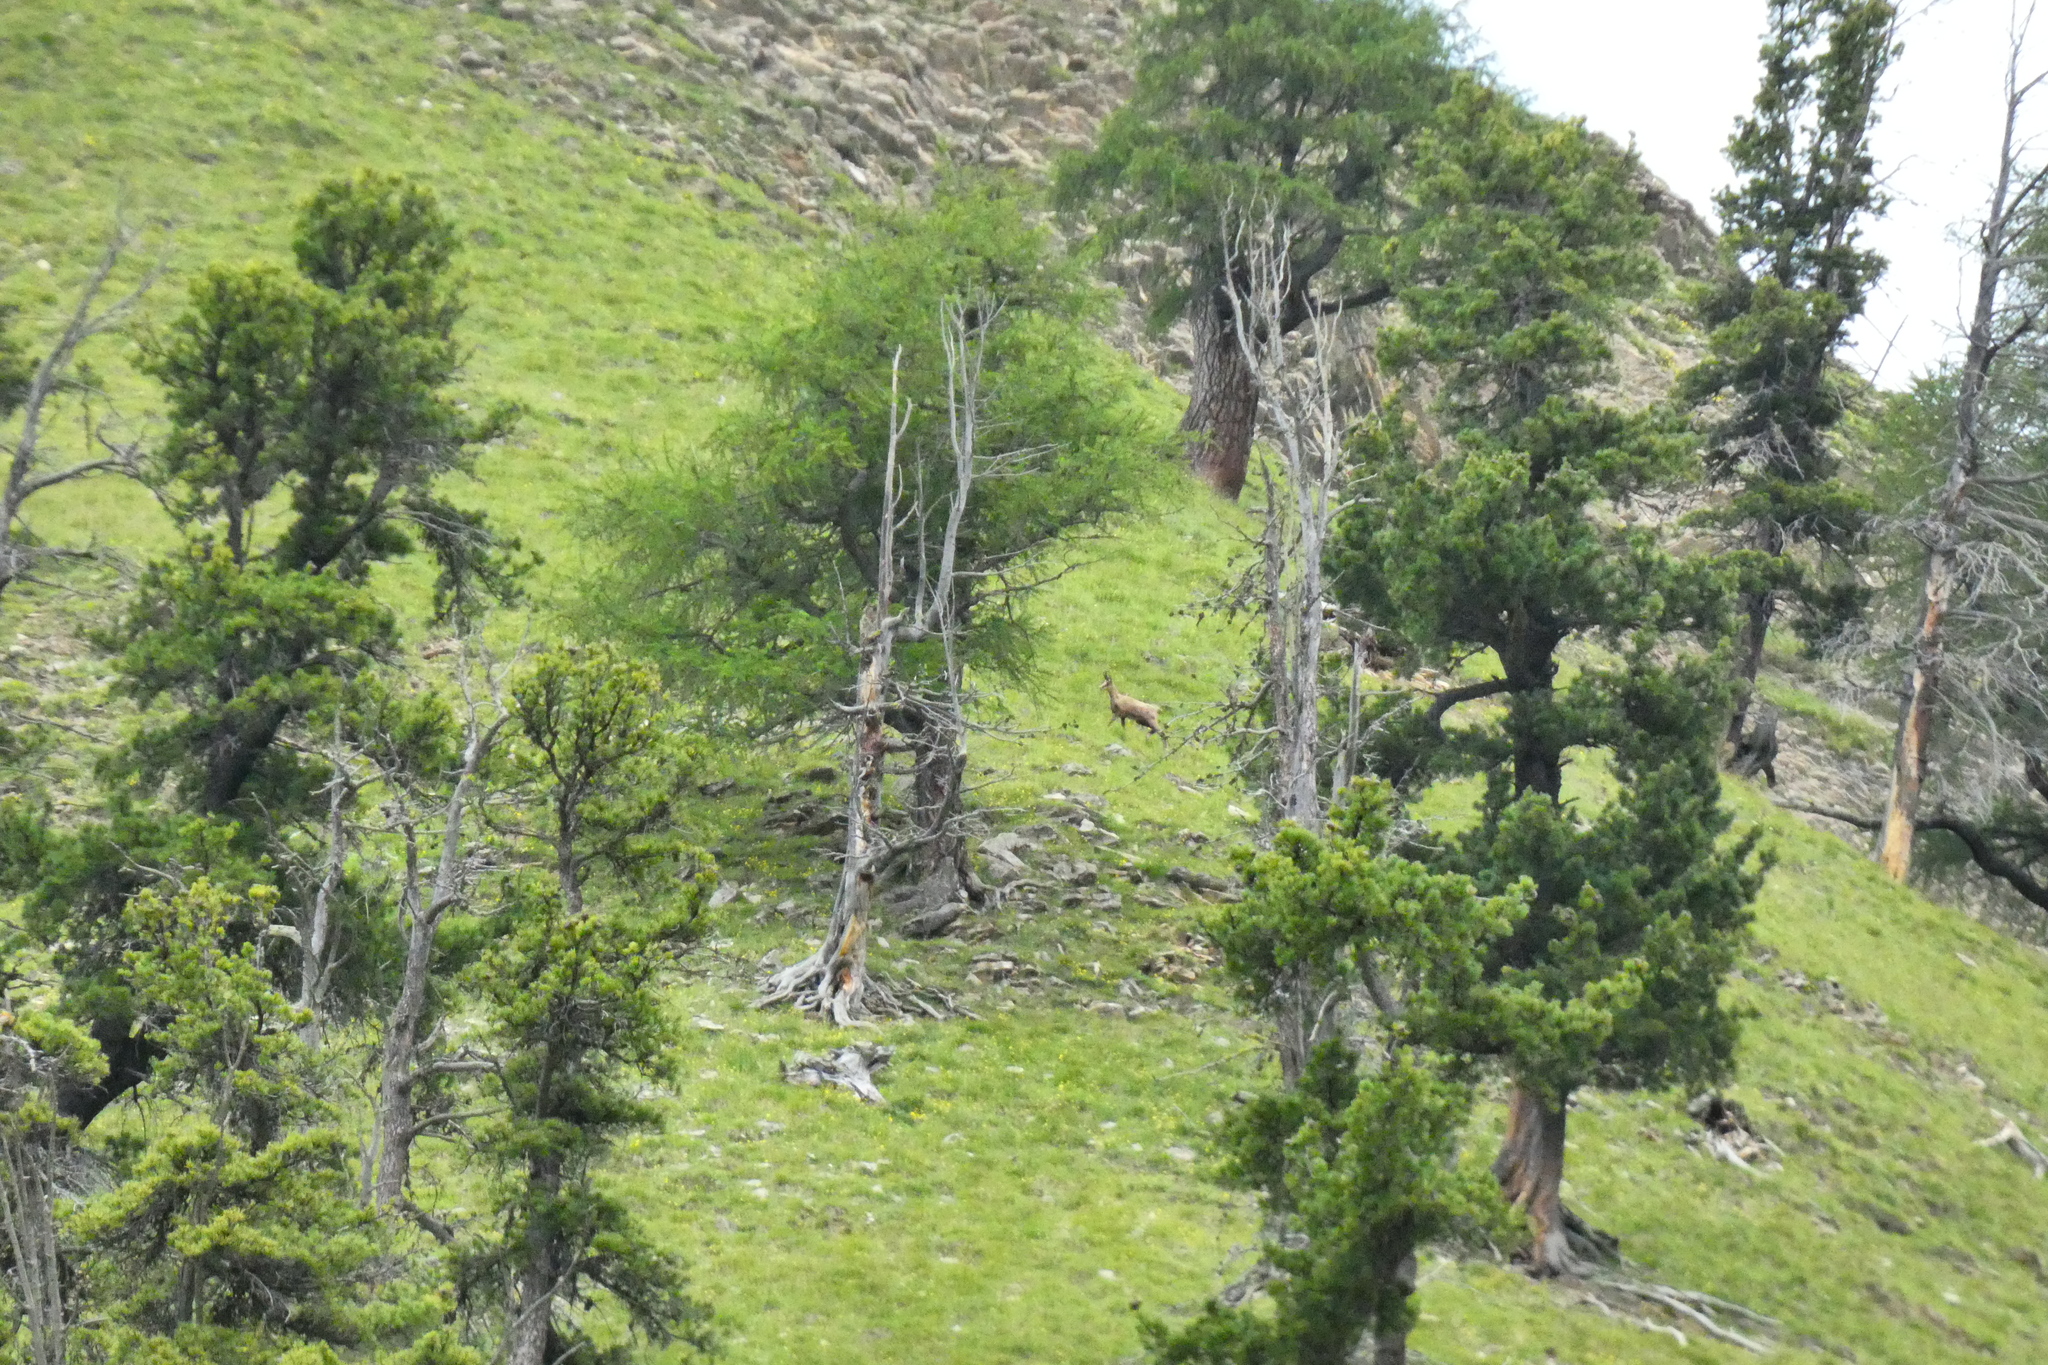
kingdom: Animalia
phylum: Chordata
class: Mammalia
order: Artiodactyla
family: Bovidae
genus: Rupicapra
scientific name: Rupicapra rupicapra
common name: Chamois
